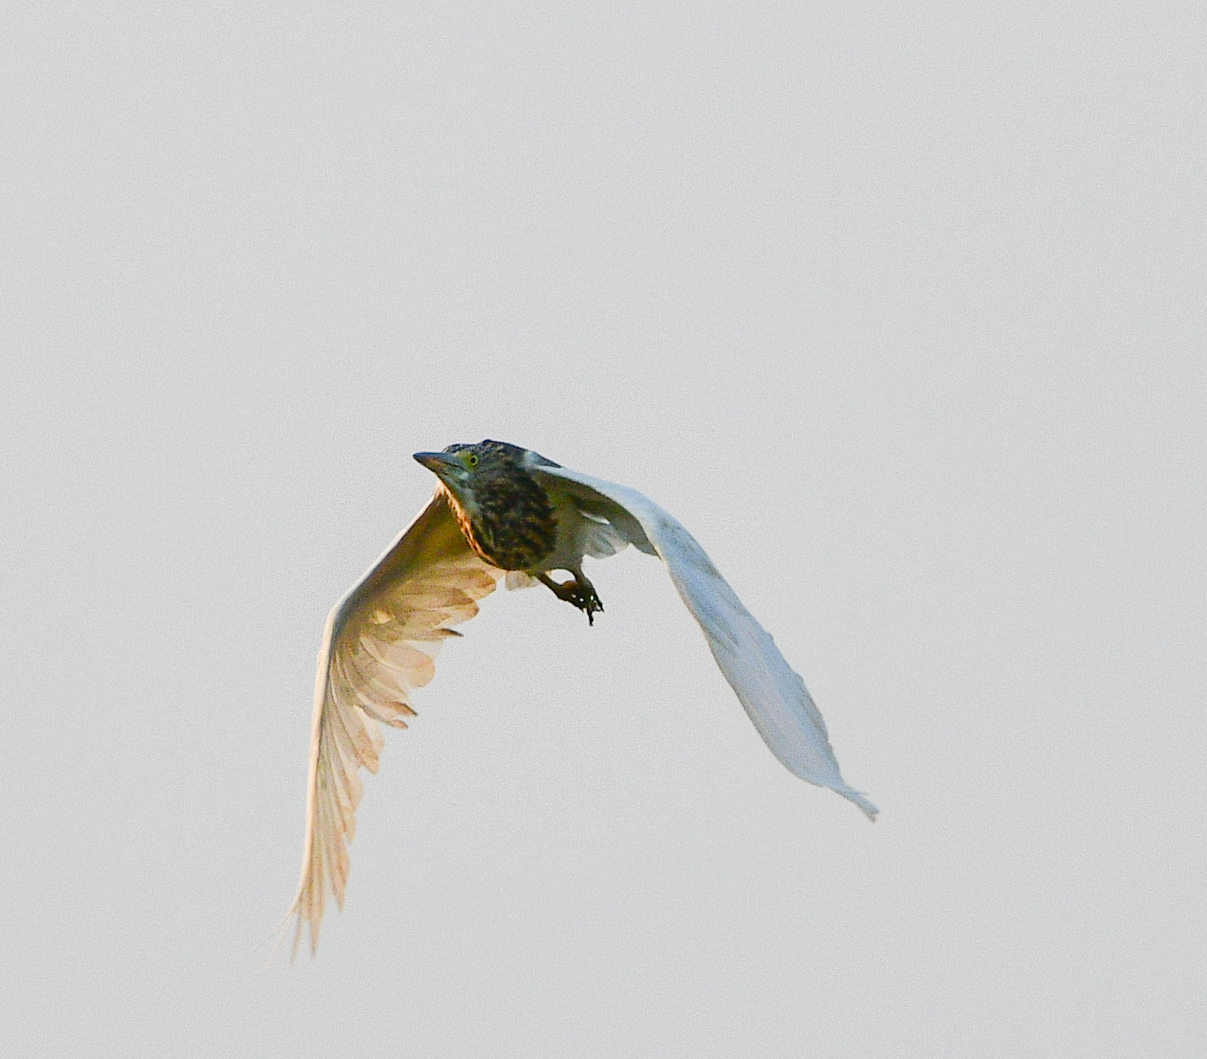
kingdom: Animalia
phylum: Chordata
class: Aves
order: Pelecaniformes
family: Ardeidae
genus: Ardeola
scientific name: Ardeola grayii
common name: Indian pond heron
